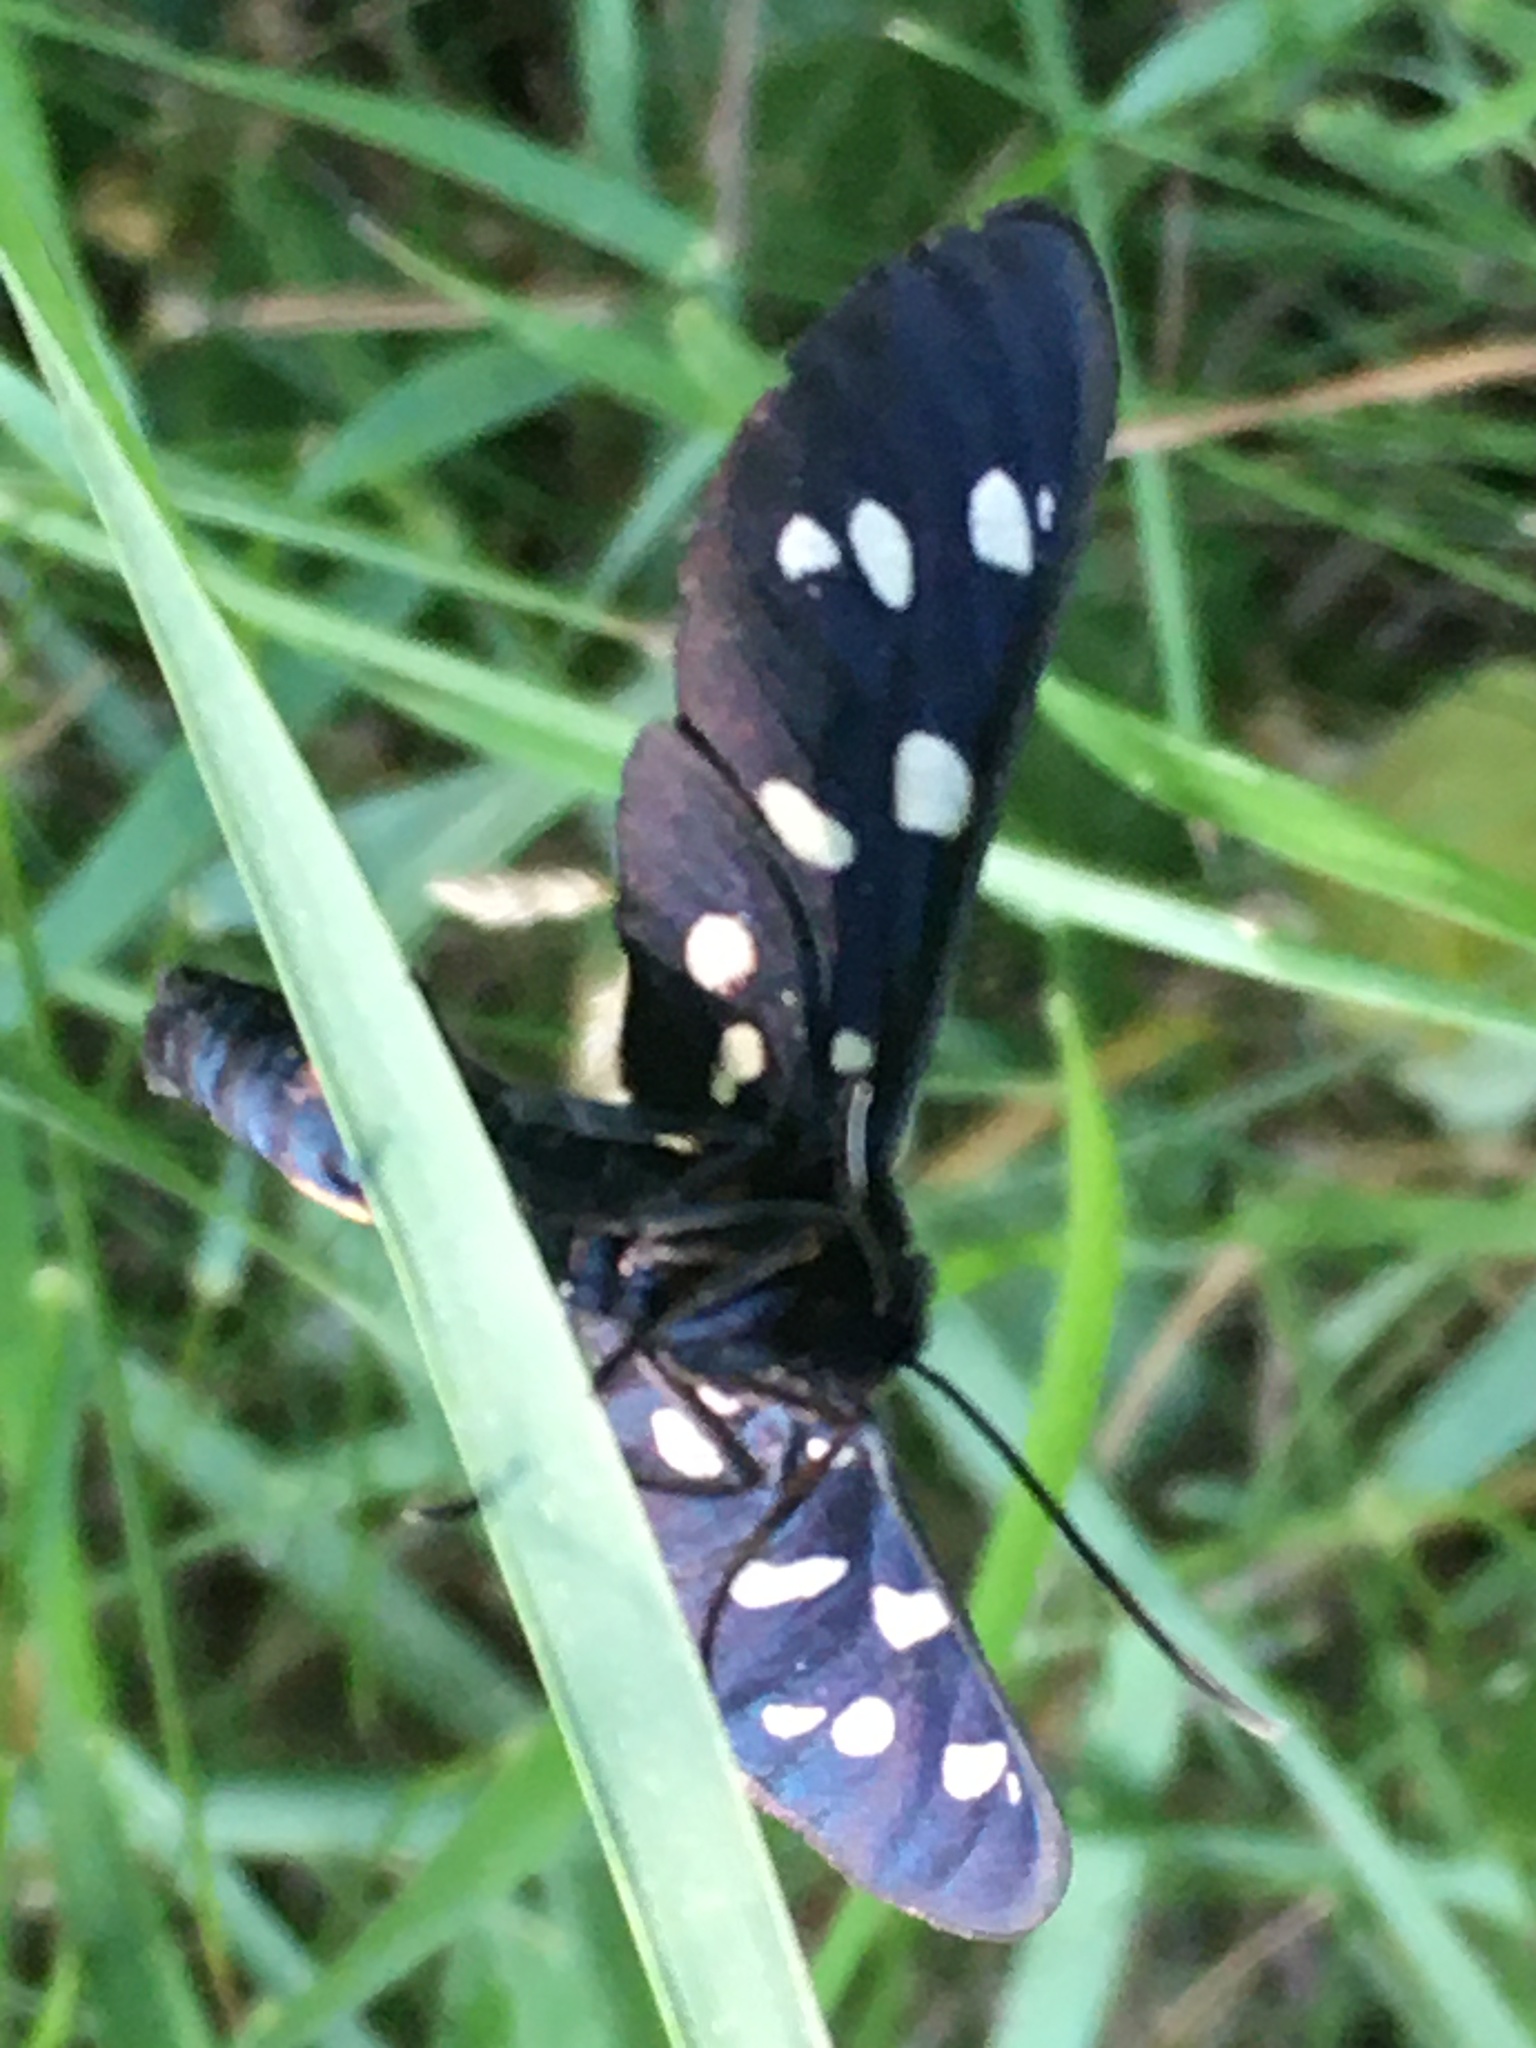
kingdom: Animalia
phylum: Arthropoda
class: Insecta
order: Lepidoptera
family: Erebidae
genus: Amata
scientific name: Amata phegea
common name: Nine-spotted
